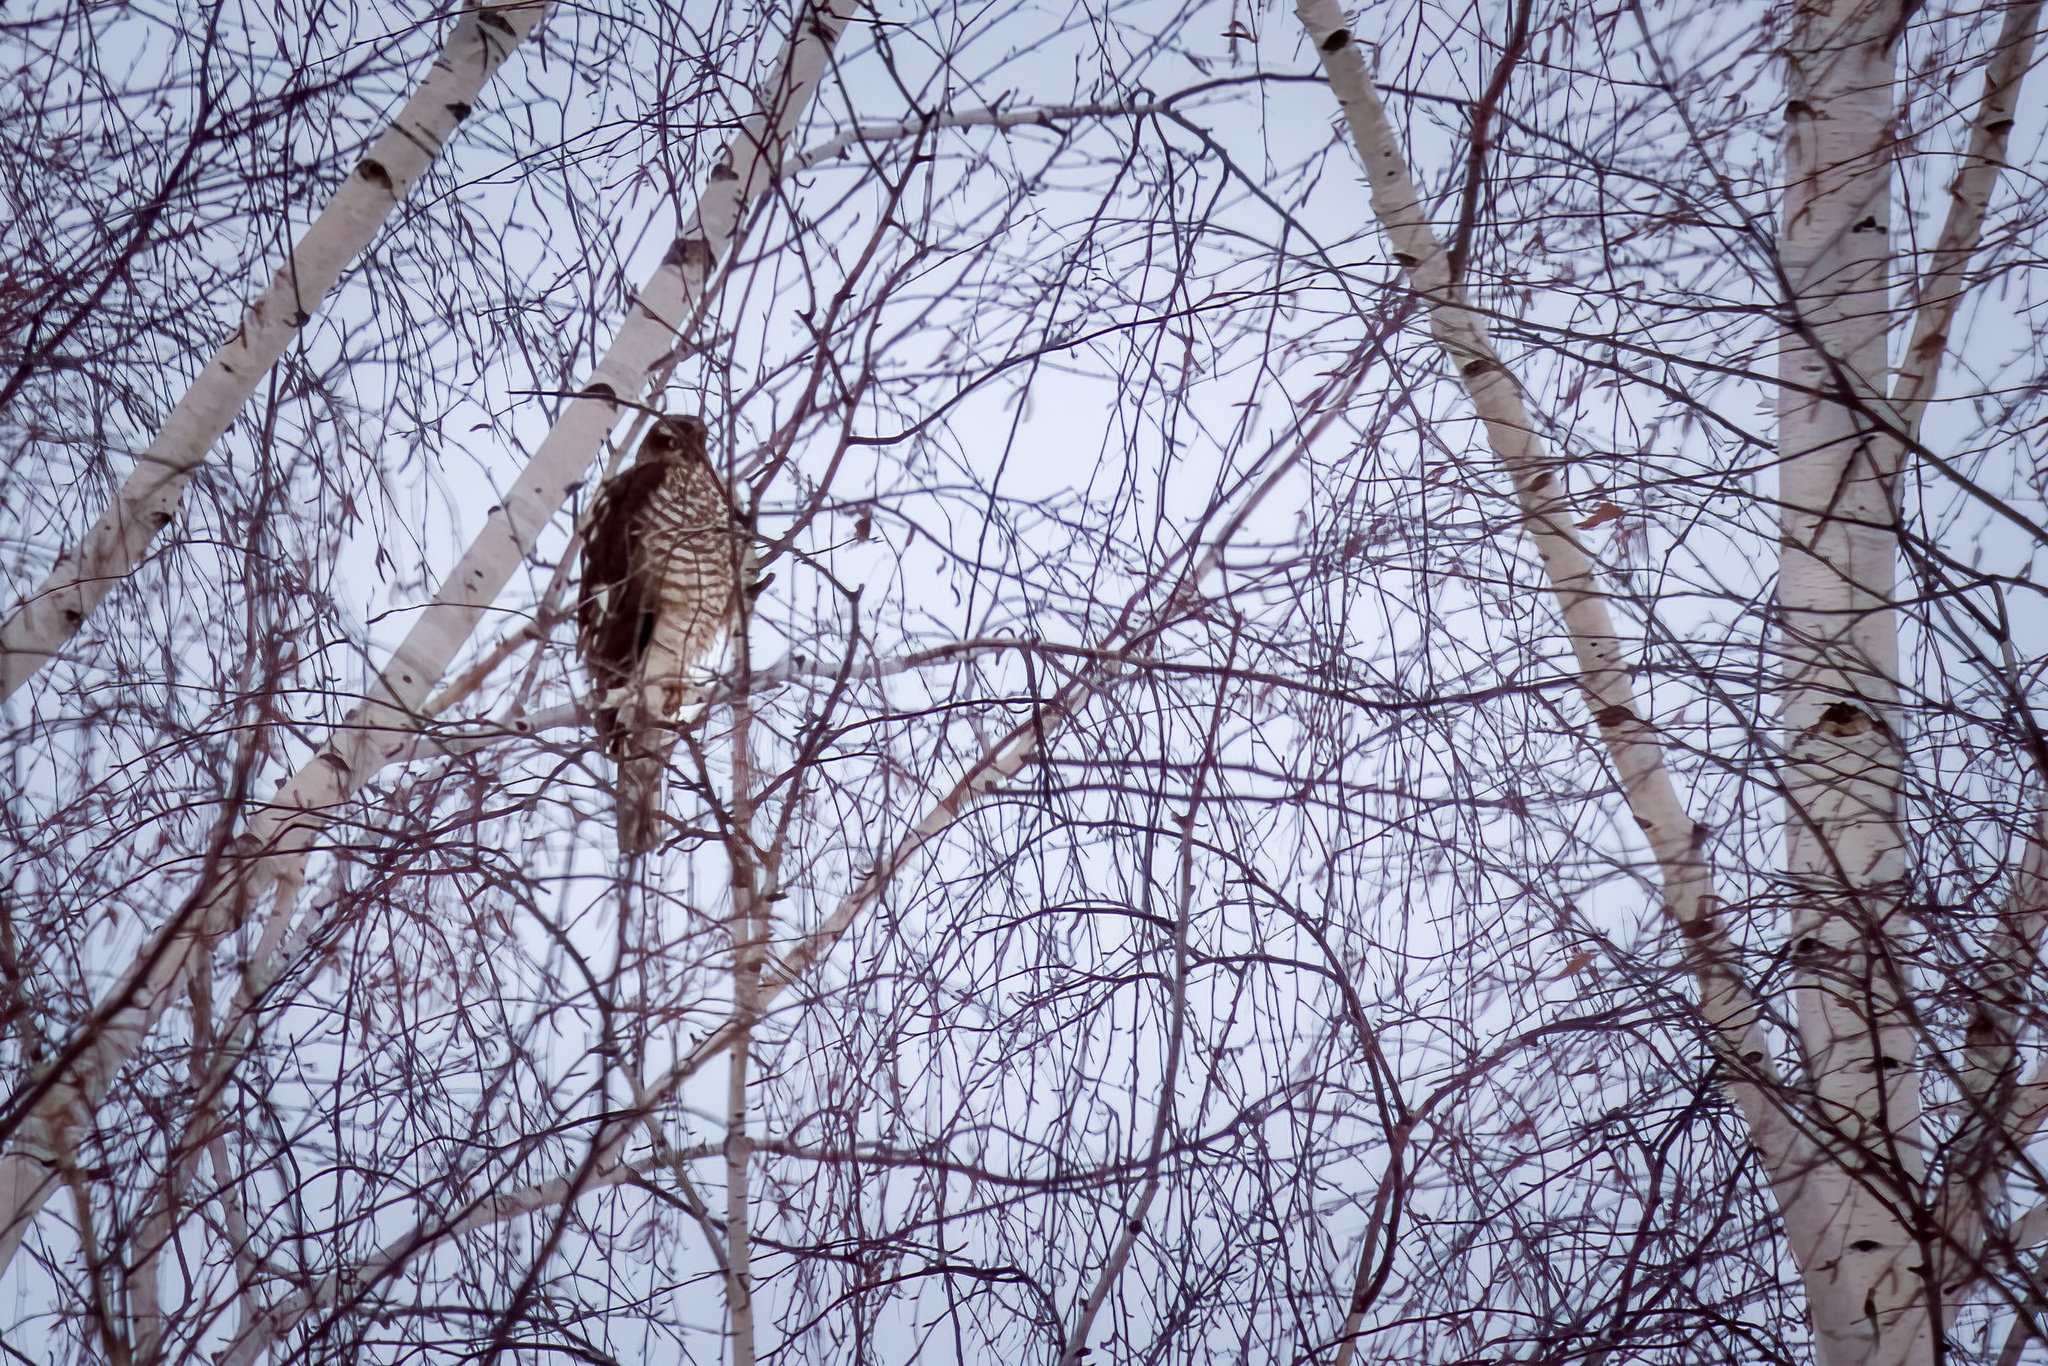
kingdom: Animalia
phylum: Chordata
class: Aves
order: Accipitriformes
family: Accipitridae
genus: Accipiter
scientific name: Accipiter nisus
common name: Eurasian sparrowhawk
